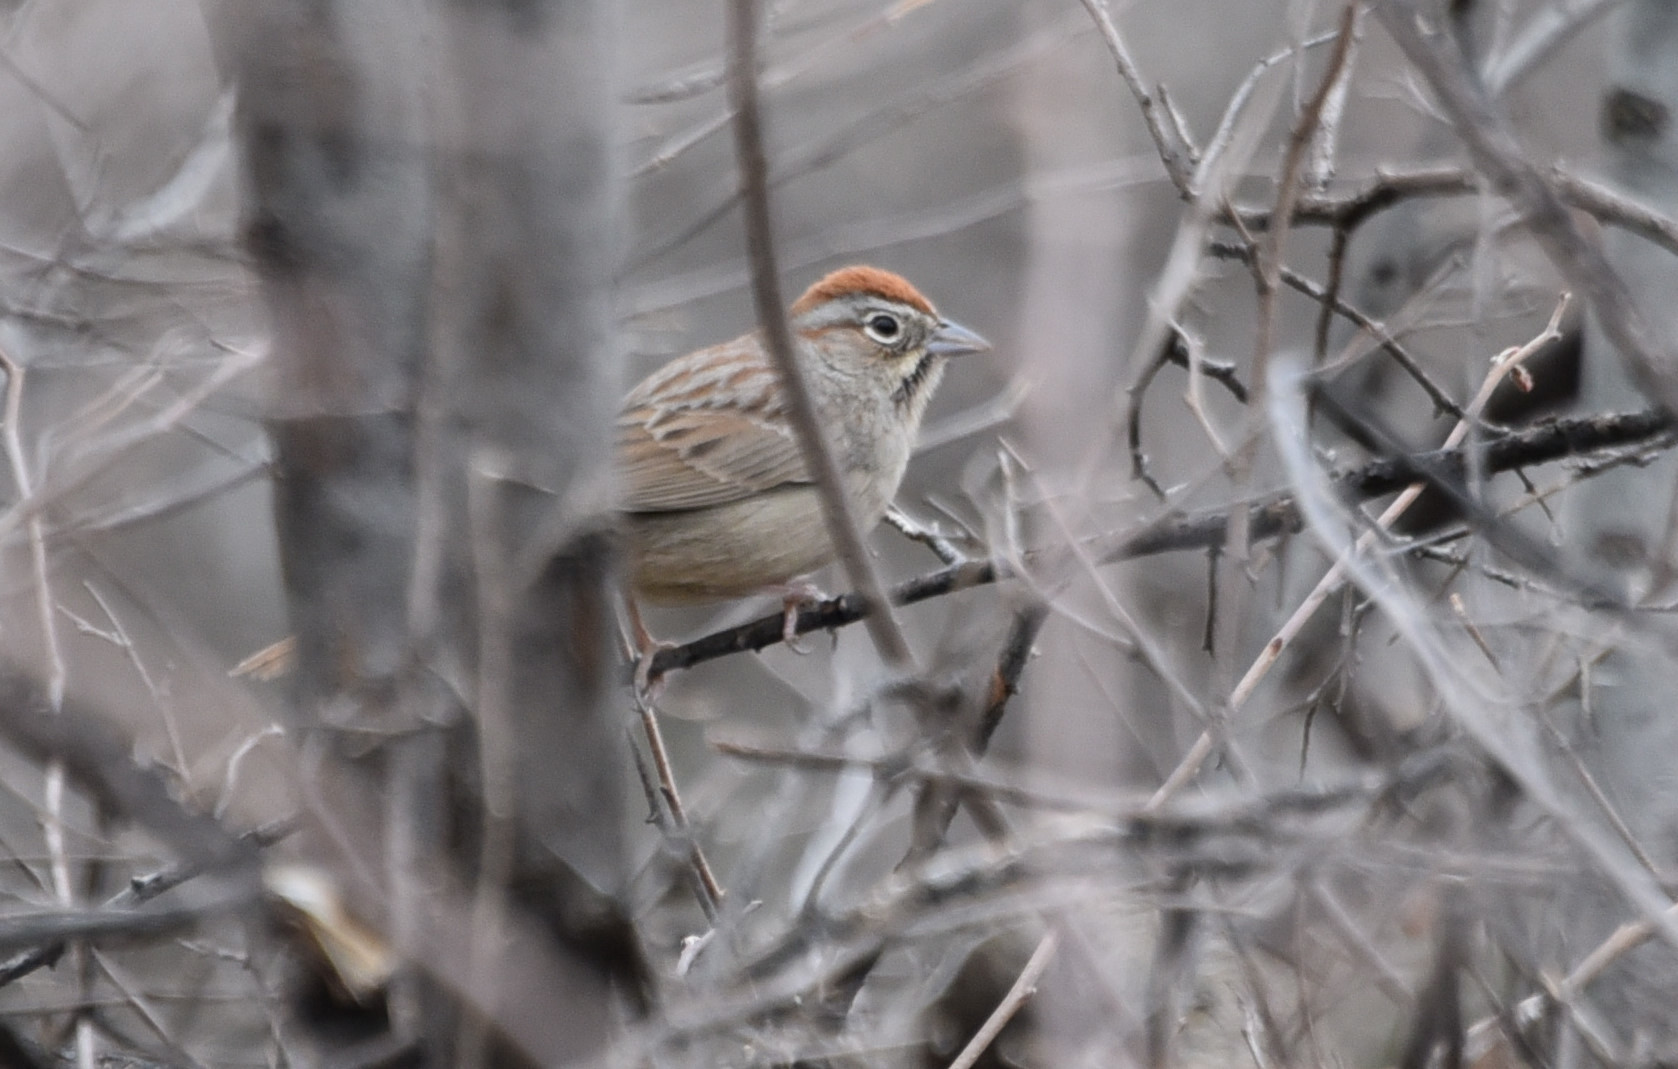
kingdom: Animalia
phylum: Chordata
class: Aves
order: Passeriformes
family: Passerellidae
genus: Aimophila
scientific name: Aimophila ruficeps
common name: Rufous-crowned sparrow
